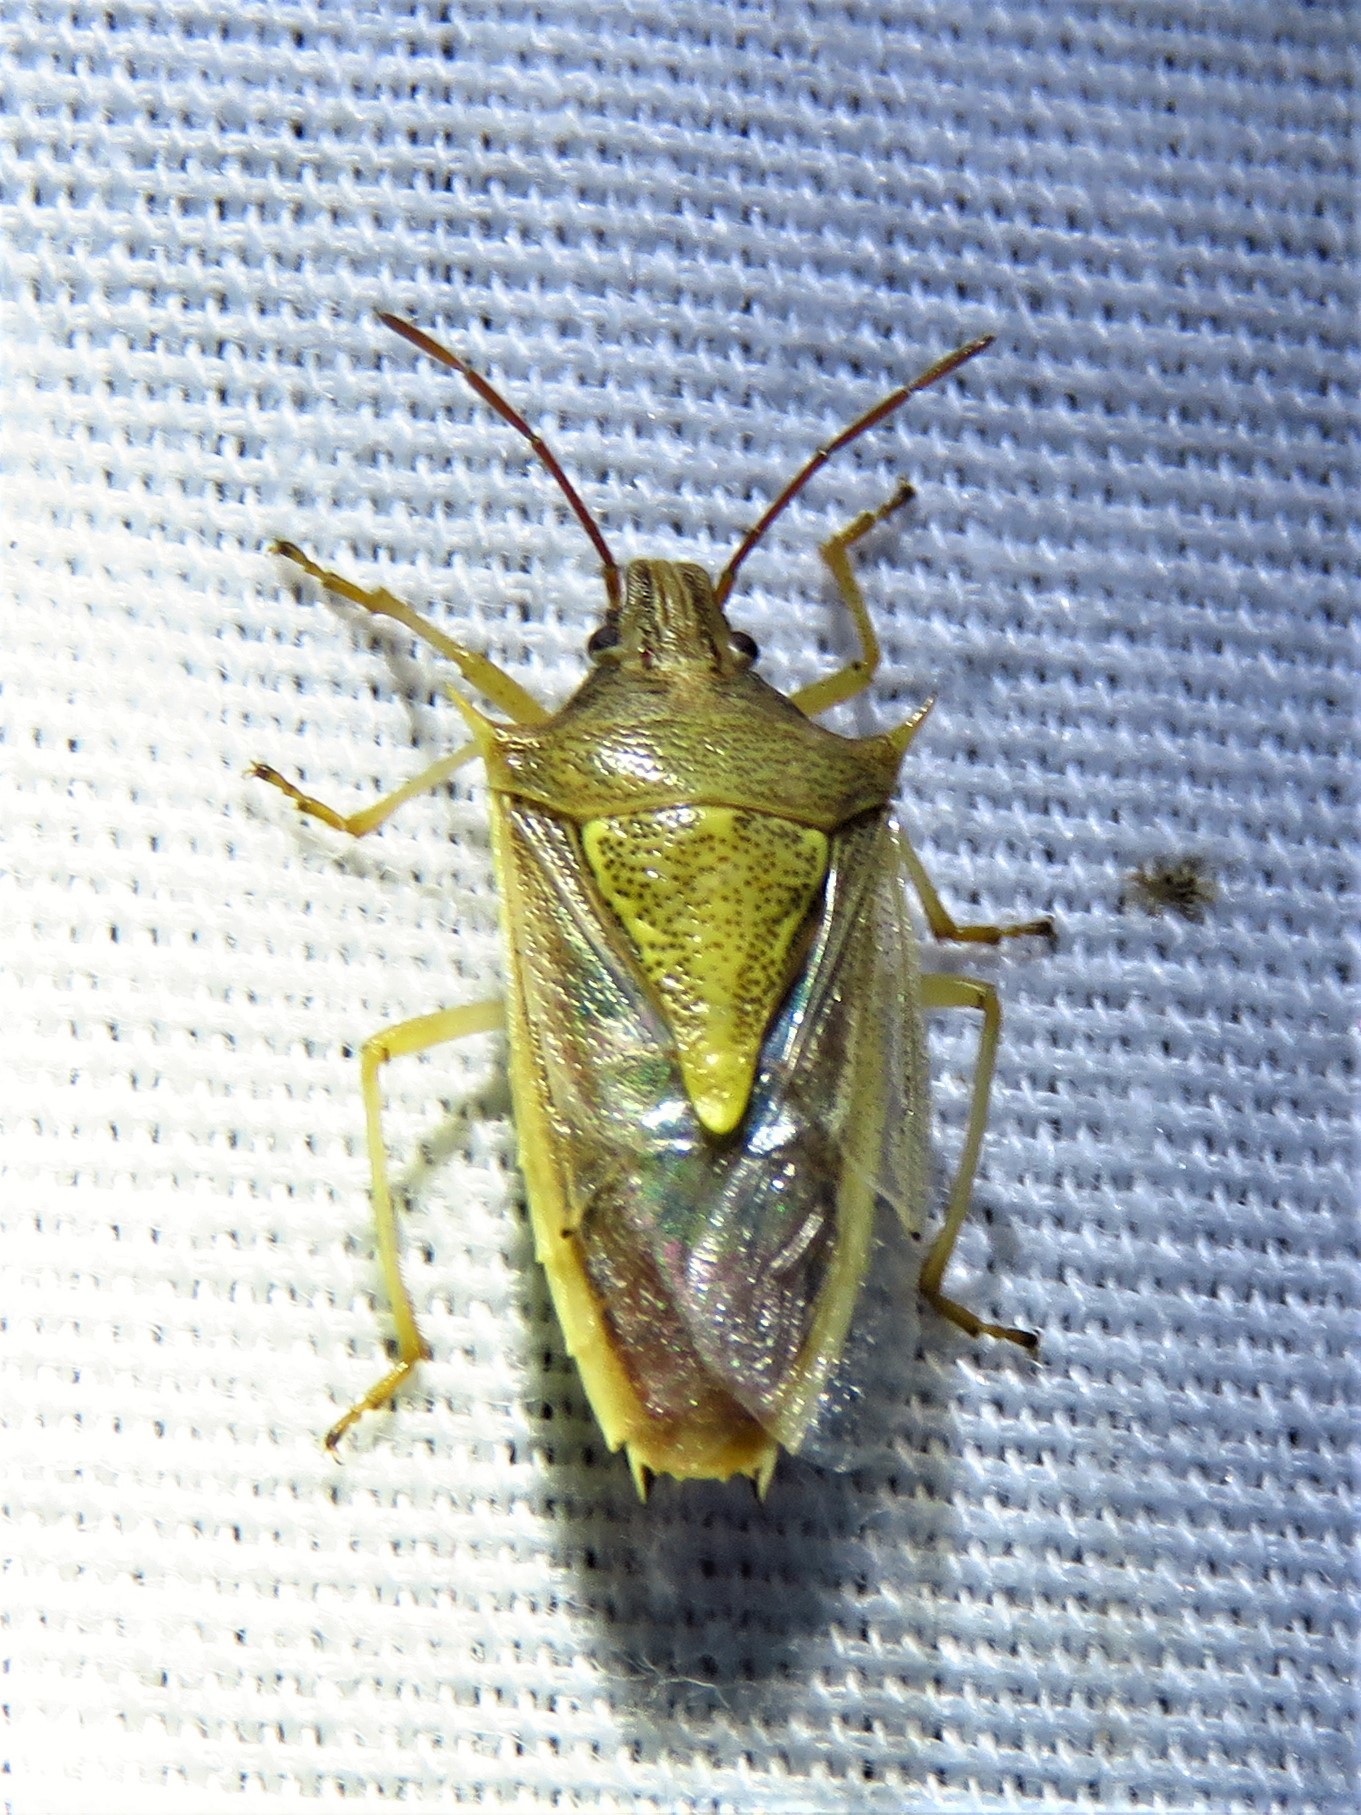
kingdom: Animalia
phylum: Arthropoda
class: Insecta
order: Hemiptera
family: Pentatomidae
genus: Oebalus
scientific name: Oebalus pugnax
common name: Rice stink bug
